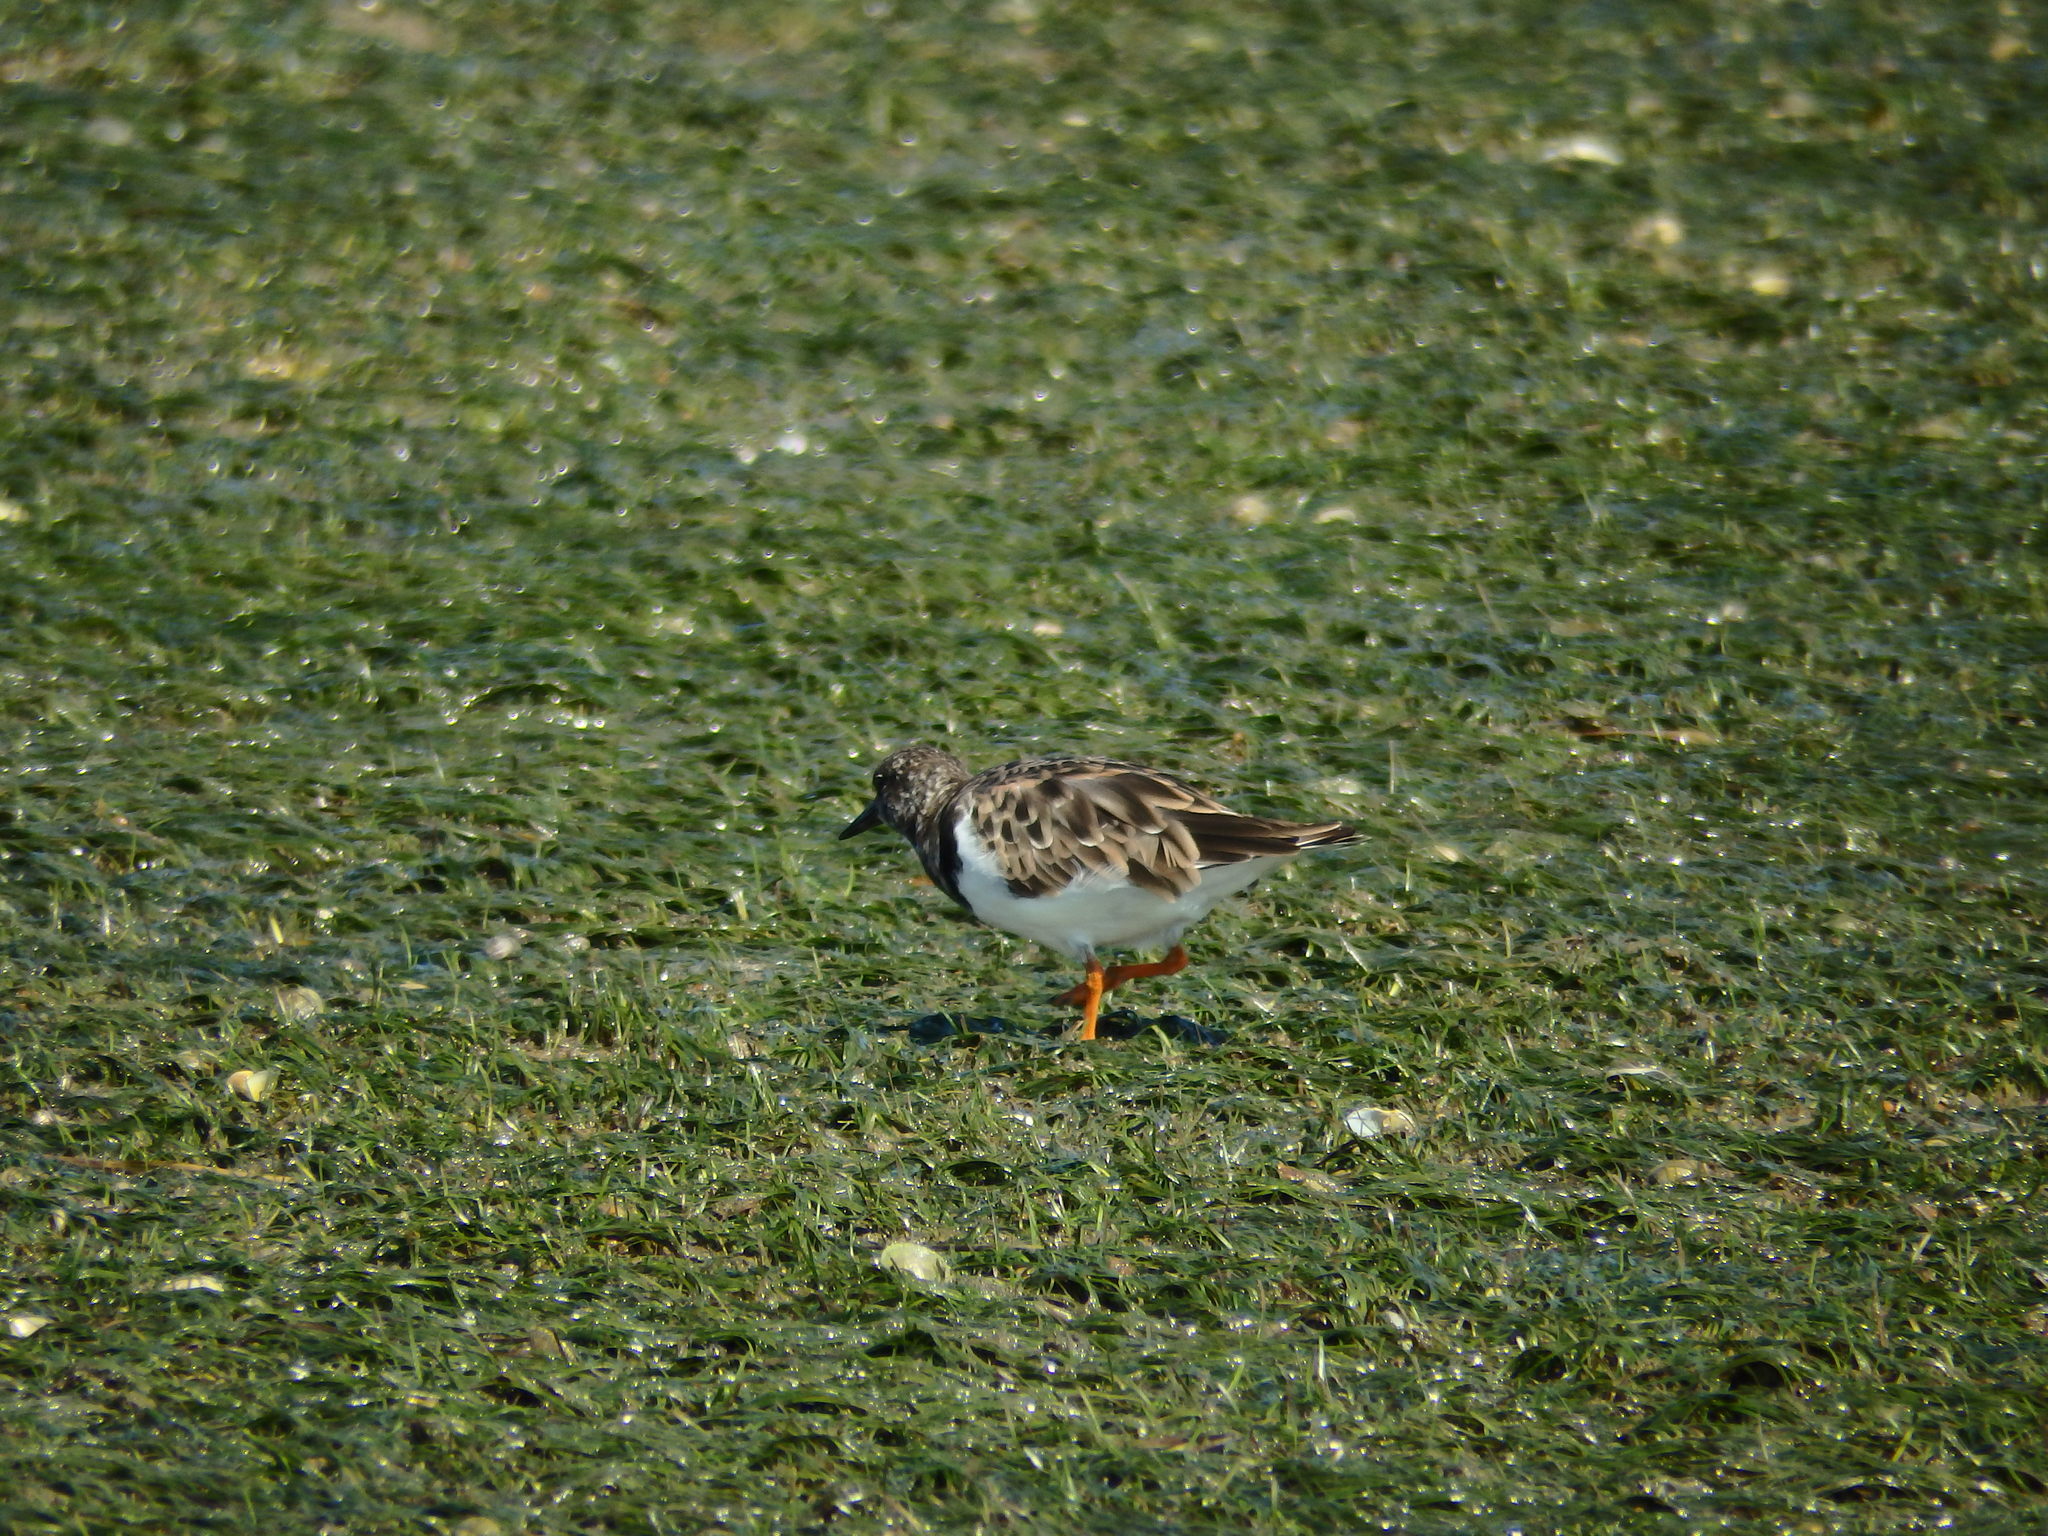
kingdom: Animalia
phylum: Chordata
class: Aves
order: Charadriiformes
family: Scolopacidae
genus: Arenaria
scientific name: Arenaria interpres
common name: Ruddy turnstone
